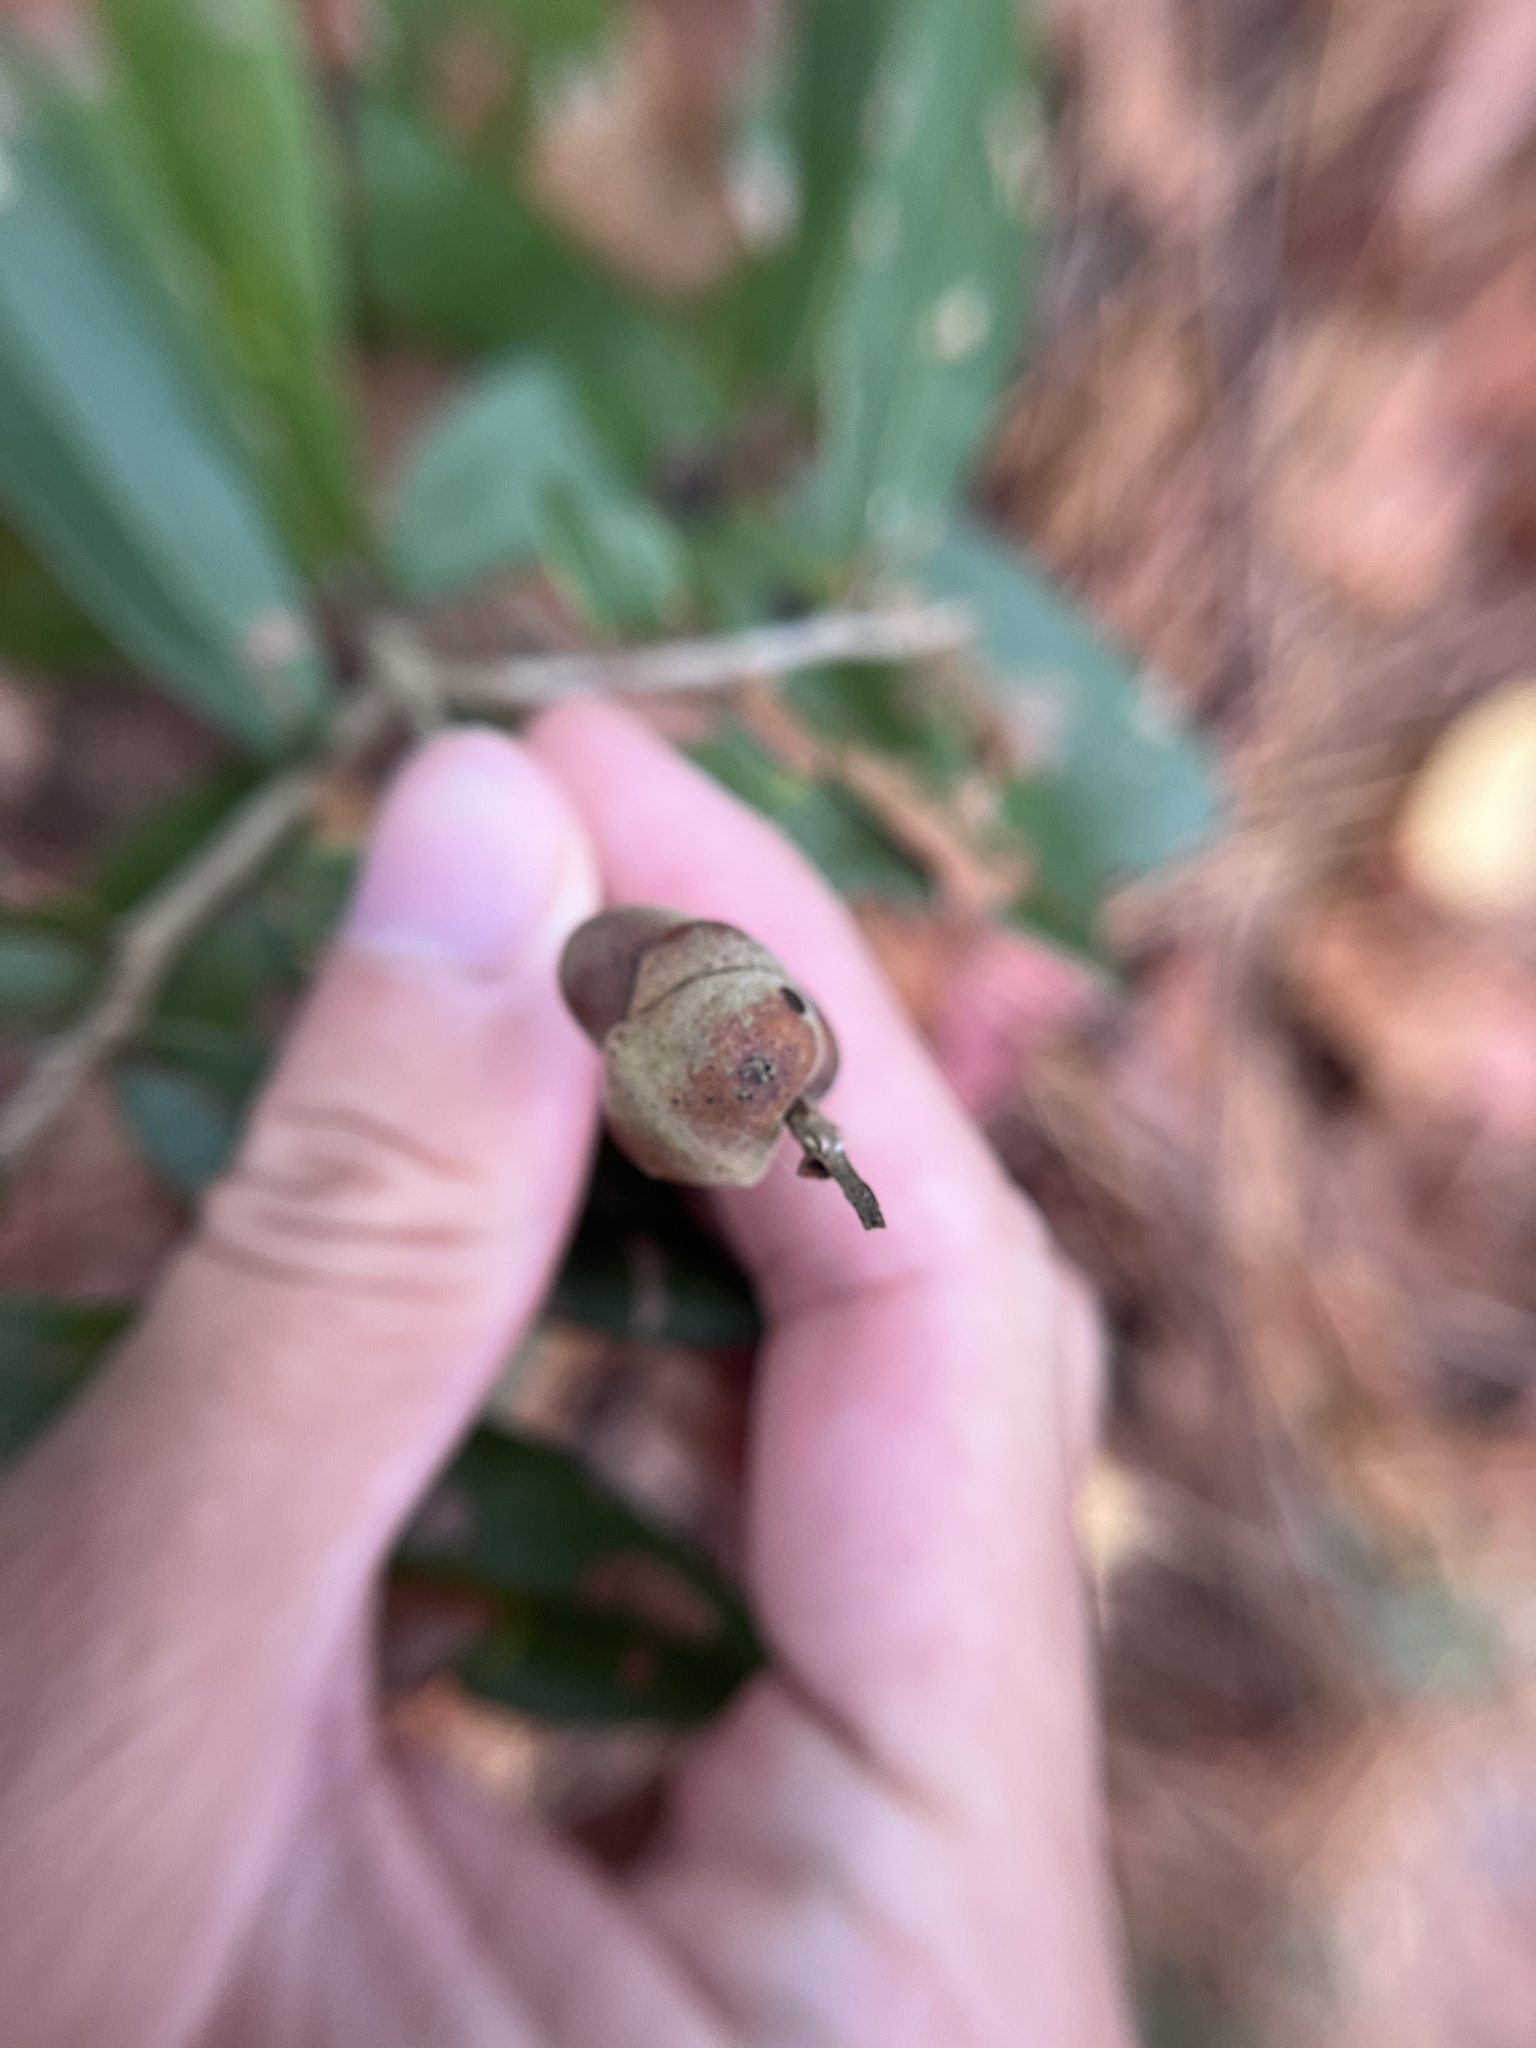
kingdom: Animalia
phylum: Arthropoda
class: Insecta
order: Hymenoptera
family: Cynipidae
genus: Disholcaspis
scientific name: Disholcaspis
